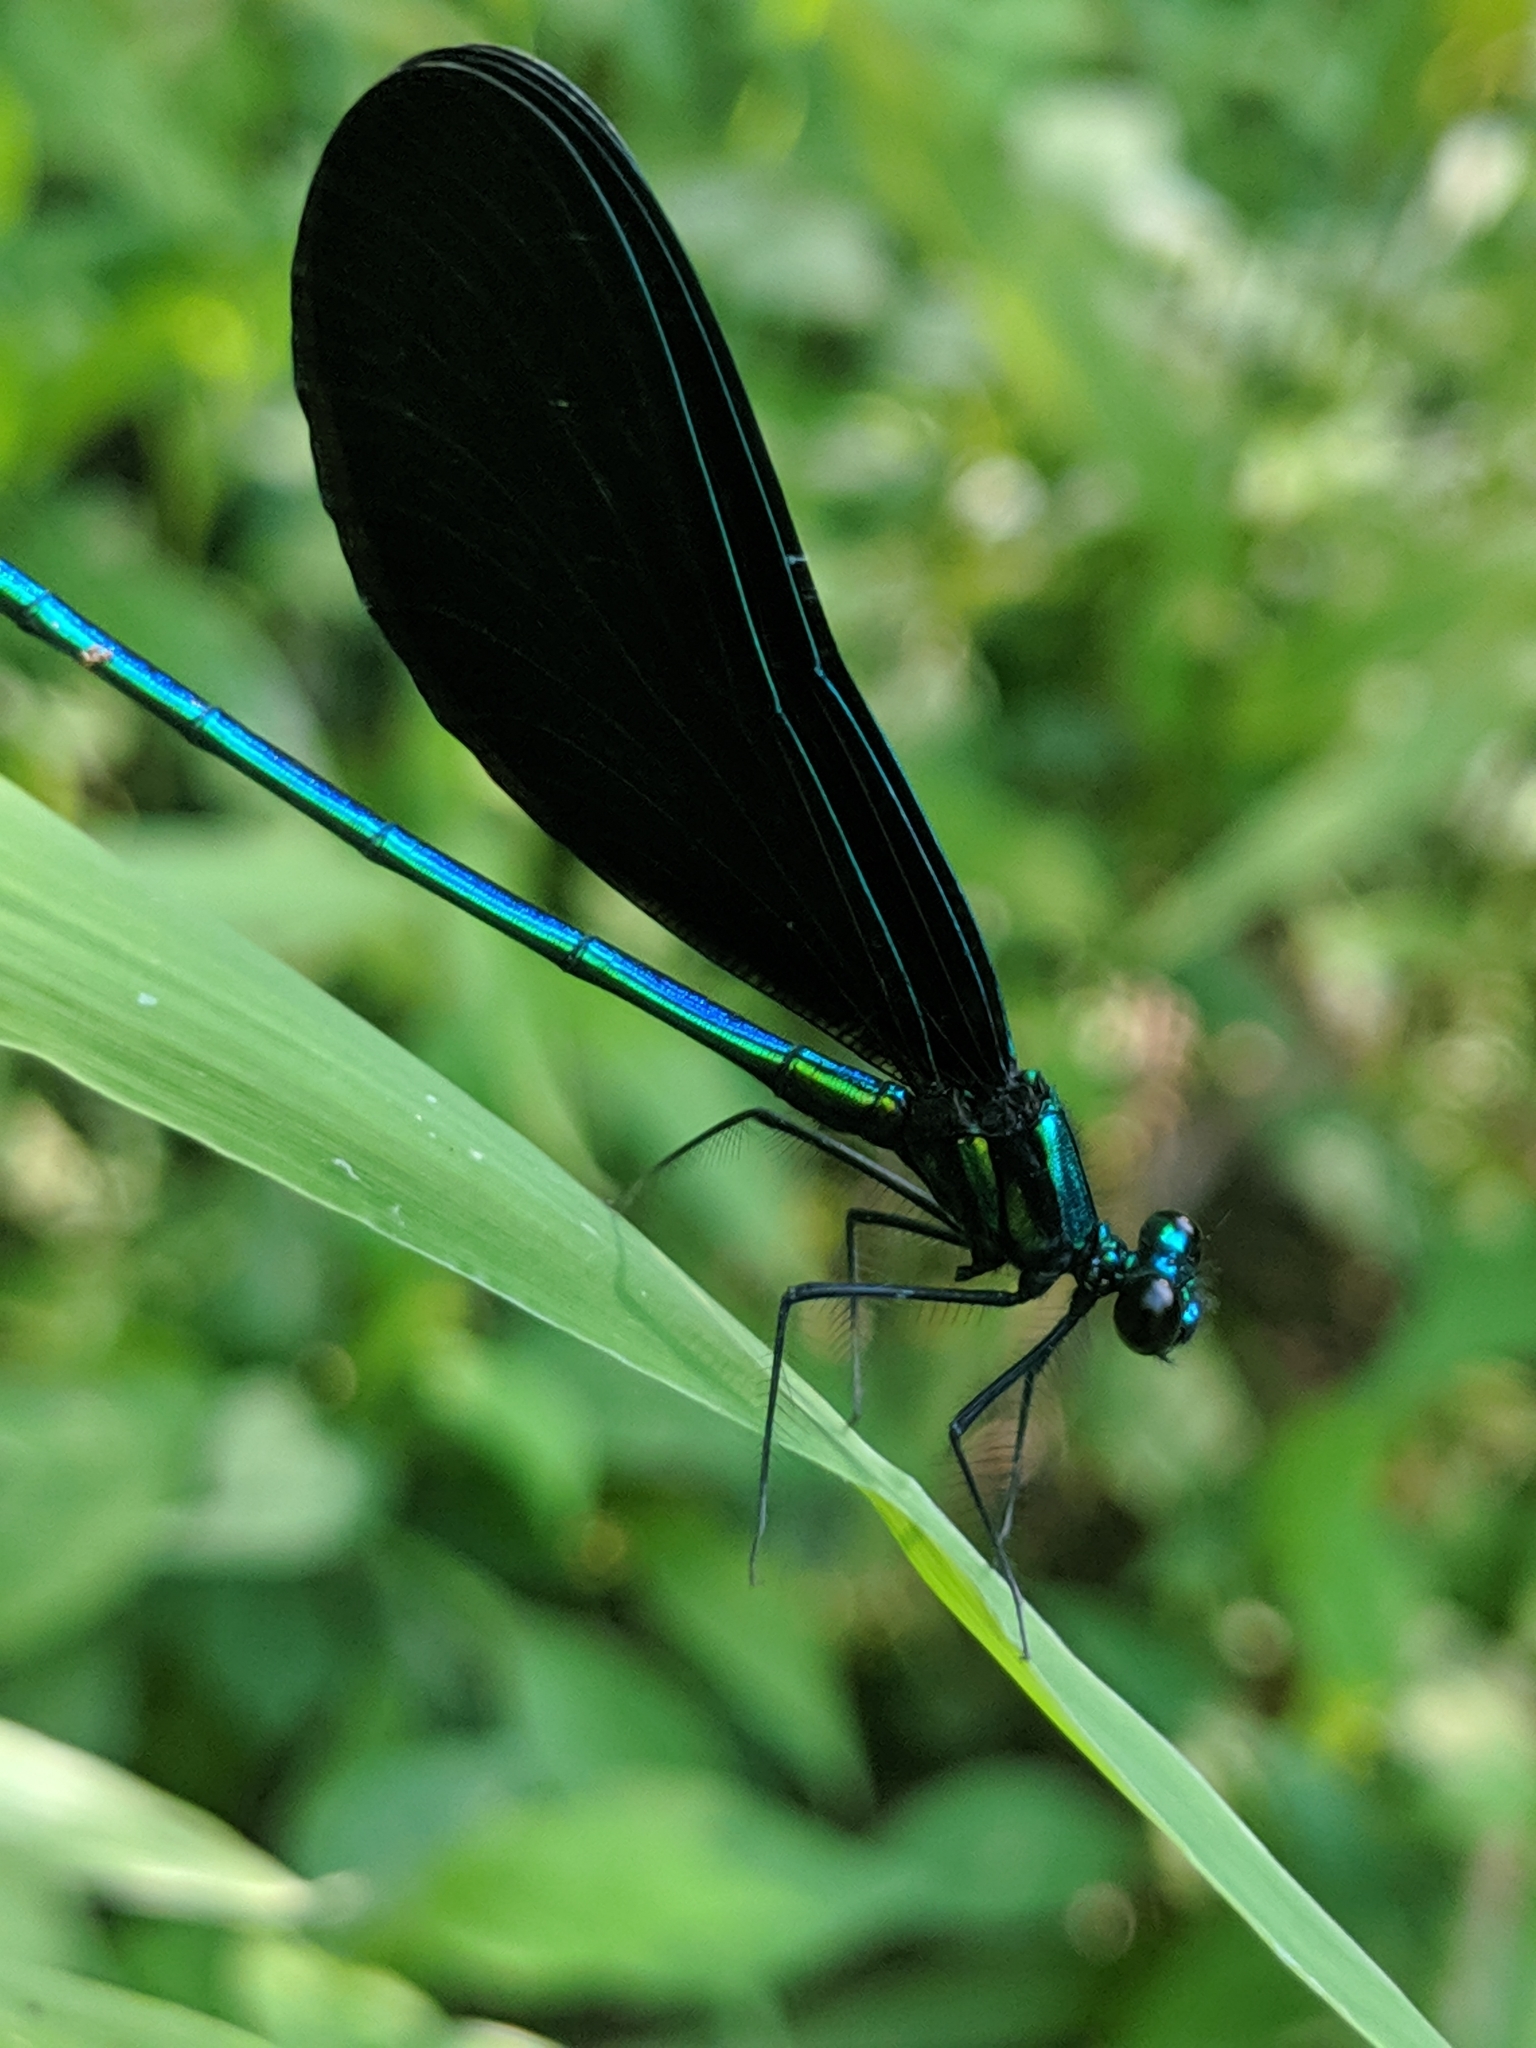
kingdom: Animalia
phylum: Arthropoda
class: Insecta
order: Odonata
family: Calopterygidae
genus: Calopteryx
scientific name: Calopteryx maculata
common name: Ebony jewelwing
